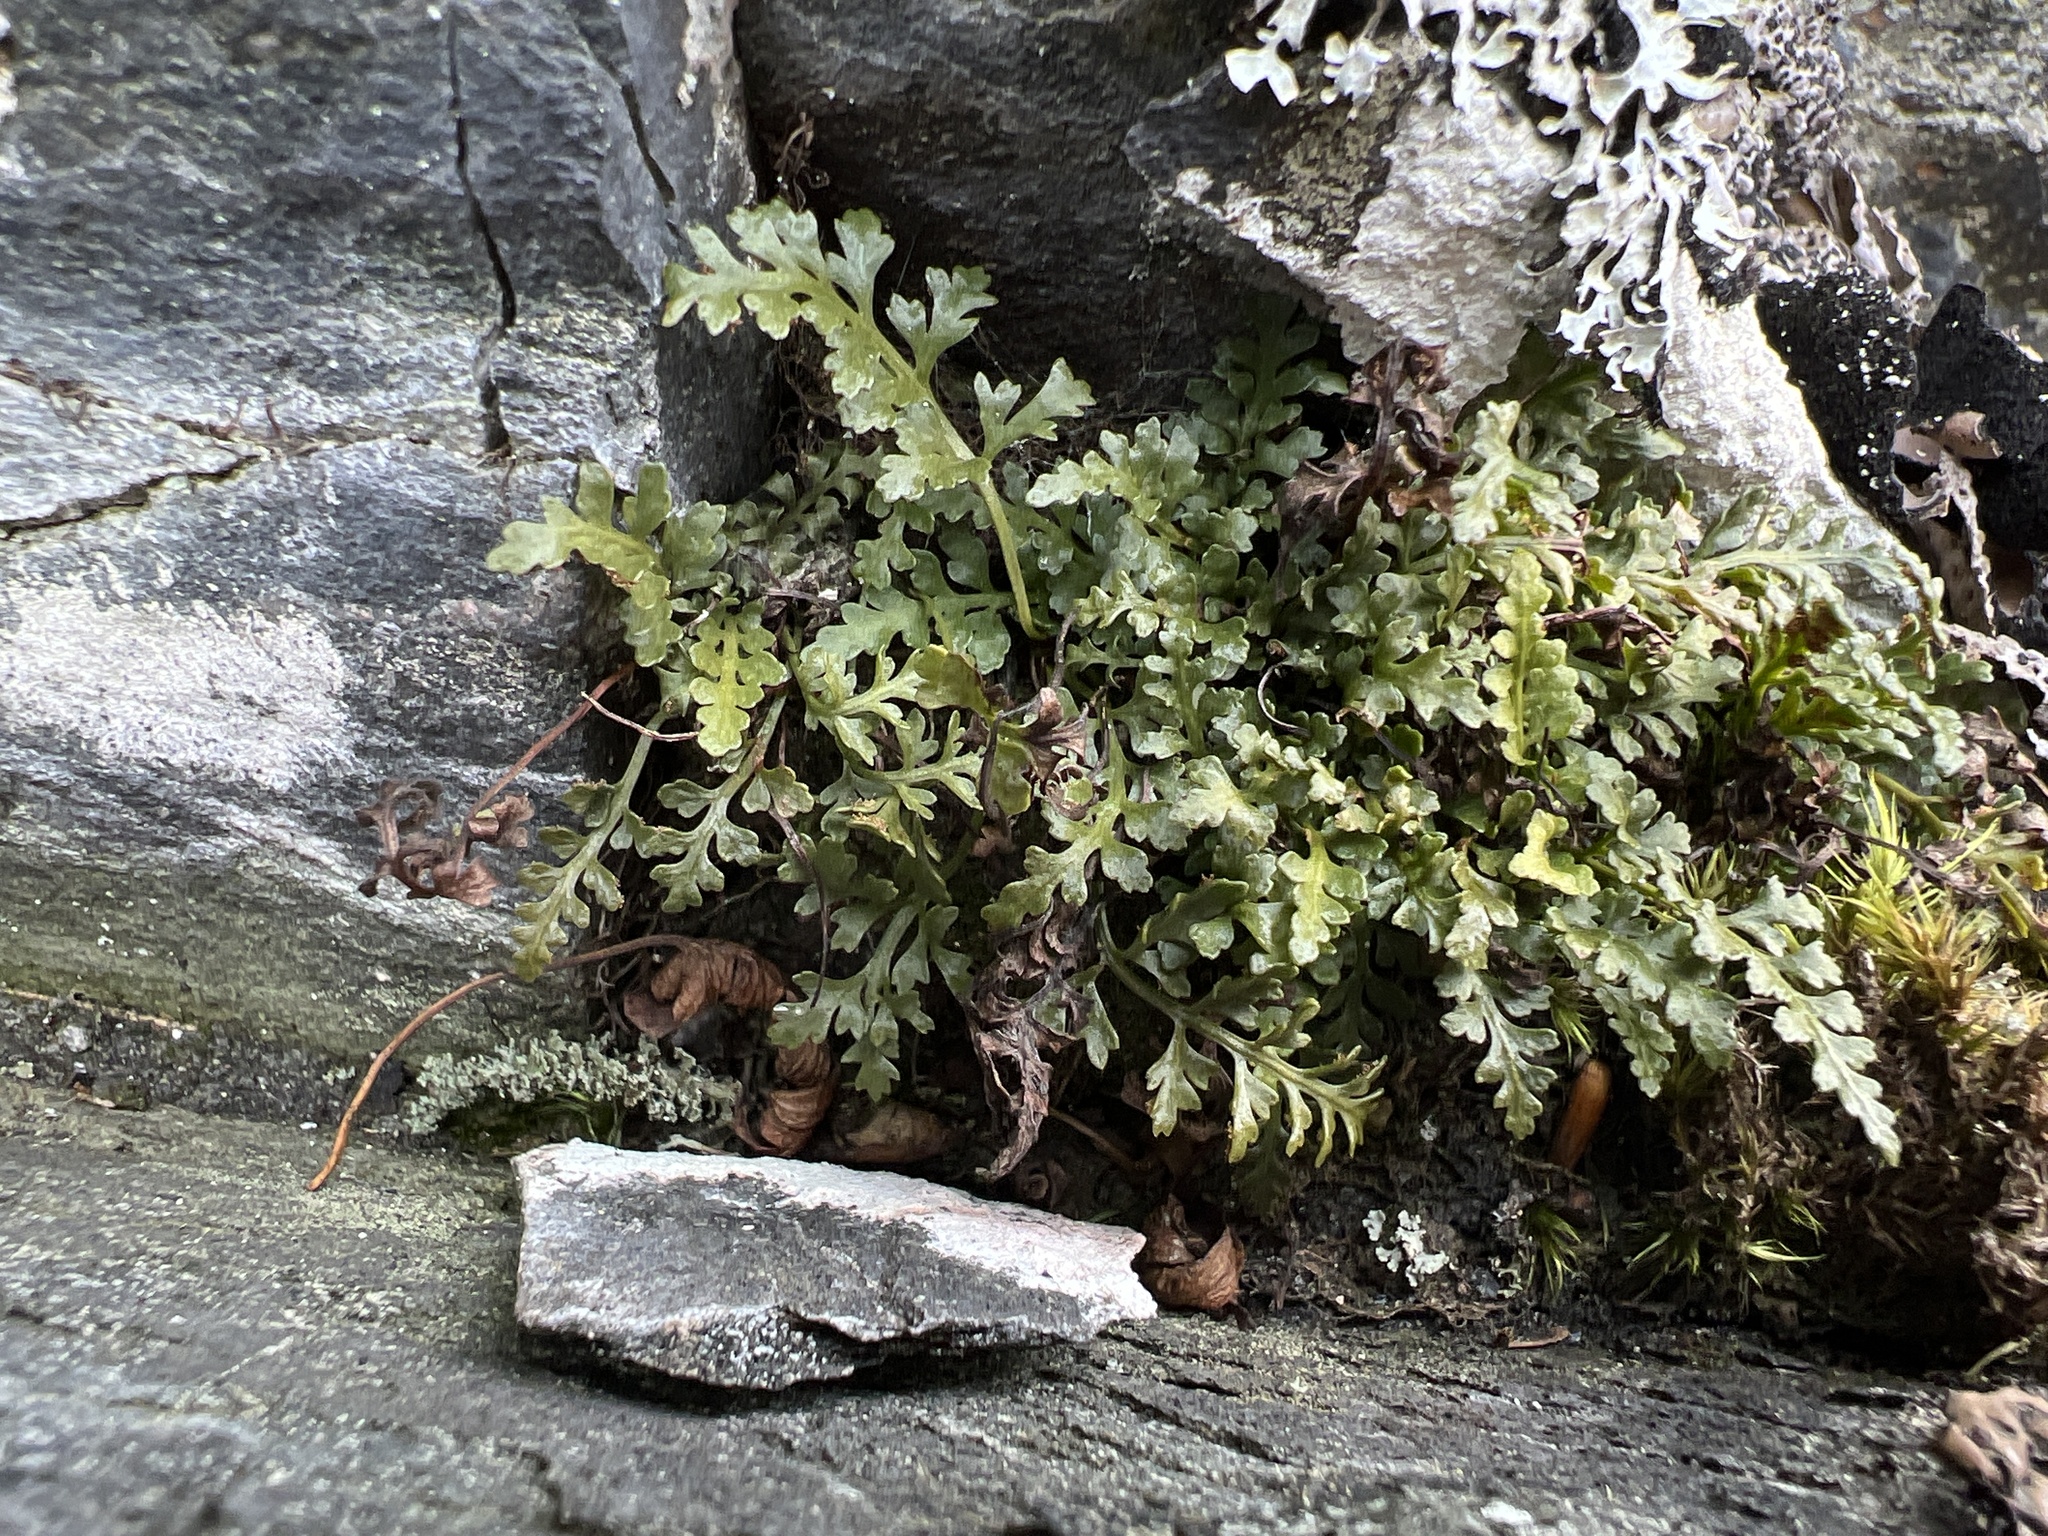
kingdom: Plantae
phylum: Tracheophyta
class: Polypodiopsida
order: Polypodiales
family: Aspleniaceae
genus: Asplenium
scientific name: Asplenium montanum
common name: Mountain spleenwort
